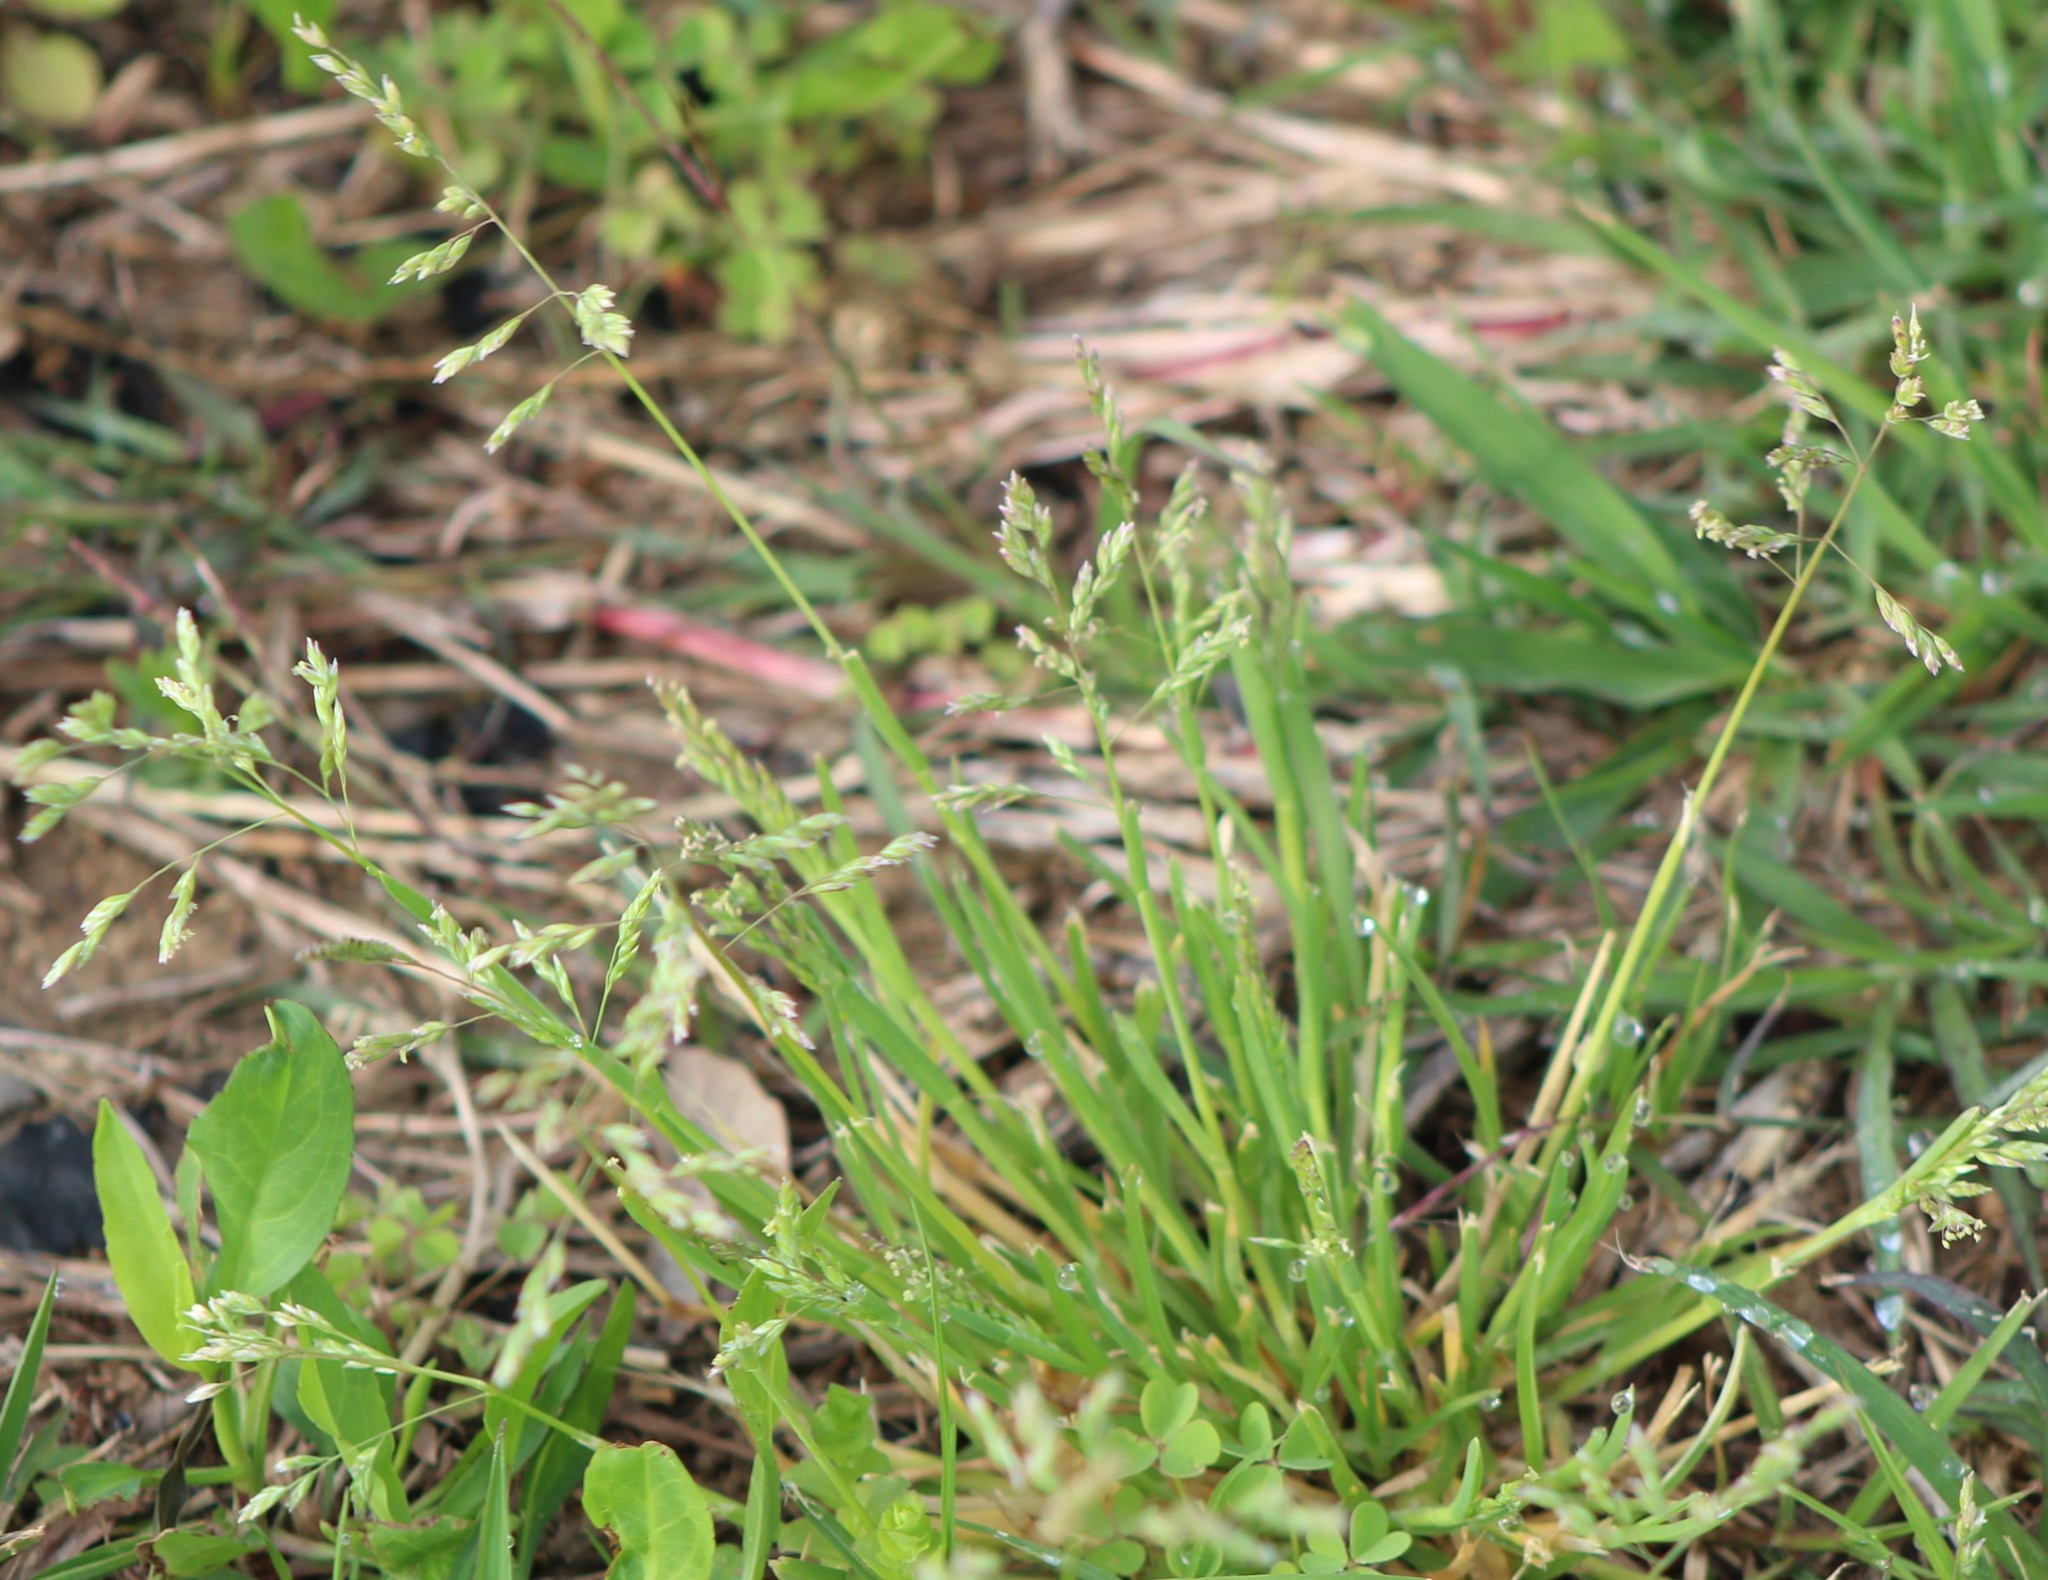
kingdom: Plantae
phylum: Tracheophyta
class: Liliopsida
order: Poales
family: Poaceae
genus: Poa
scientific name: Poa annua
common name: Annual bluegrass
